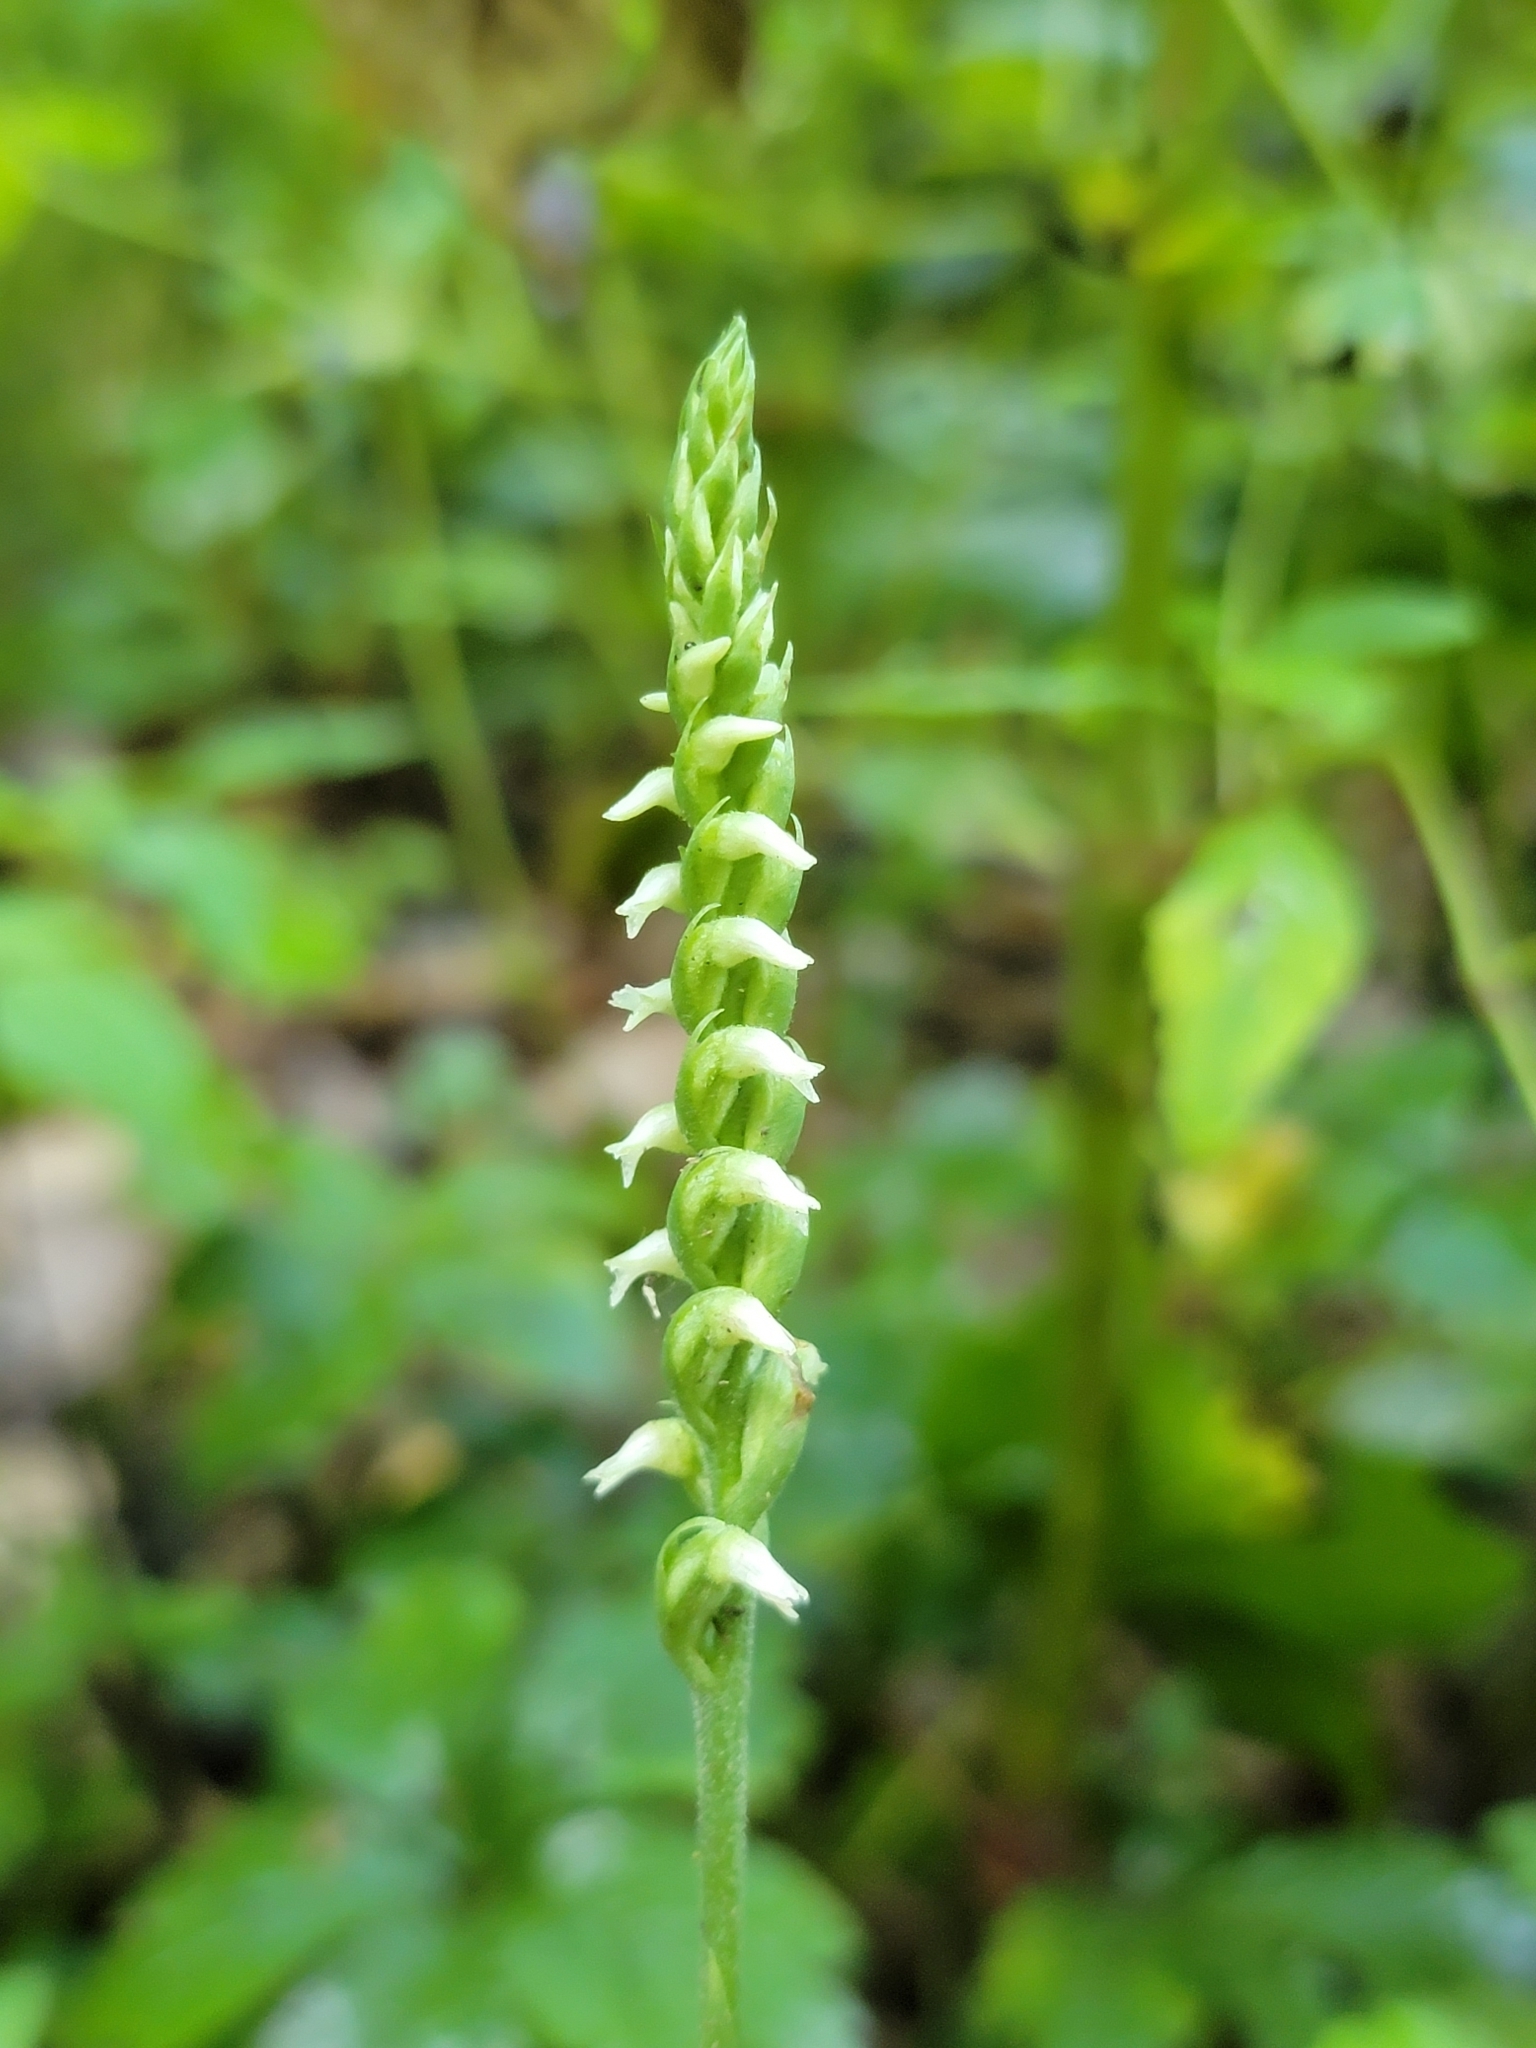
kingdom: Plantae
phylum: Tracheophyta
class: Liliopsida
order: Asparagales
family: Orchidaceae
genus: Spiranthes
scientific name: Spiranthes ovalis
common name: October ladies'-tresses
